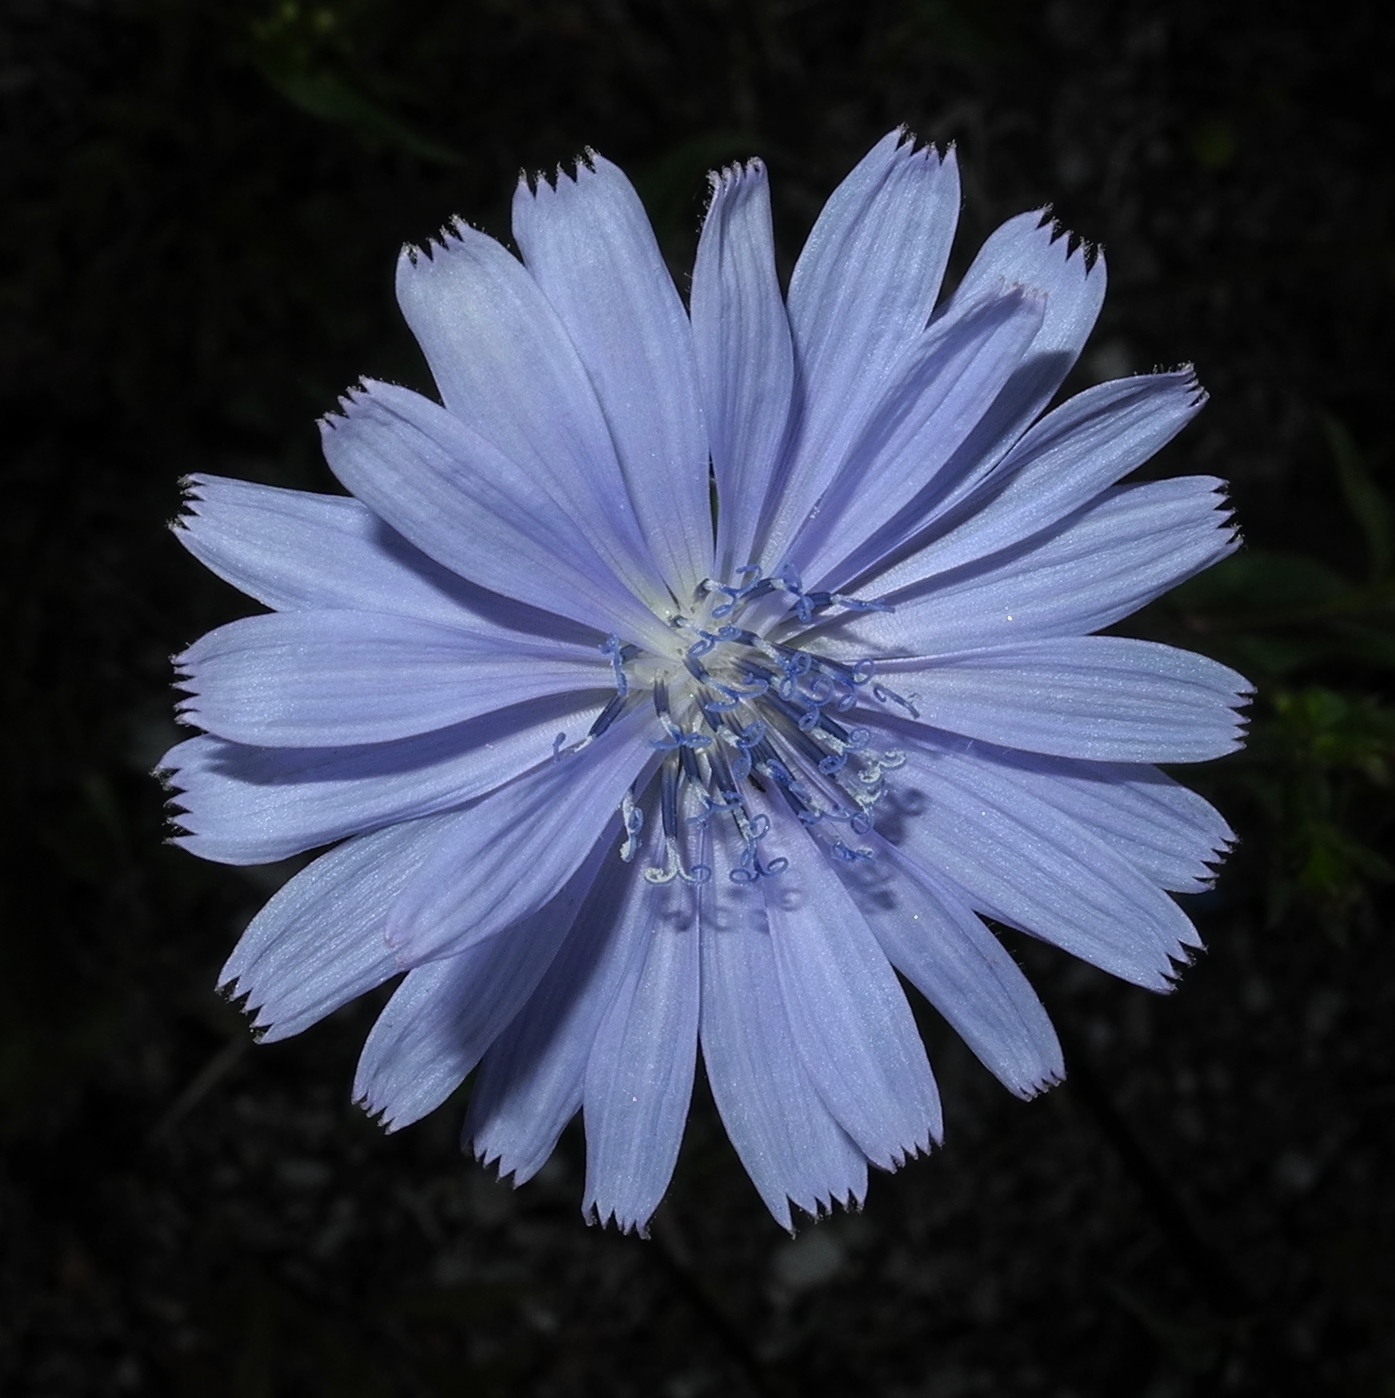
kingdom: Plantae
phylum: Tracheophyta
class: Magnoliopsida
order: Asterales
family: Asteraceae
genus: Cichorium
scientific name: Cichorium intybus
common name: Chicory
